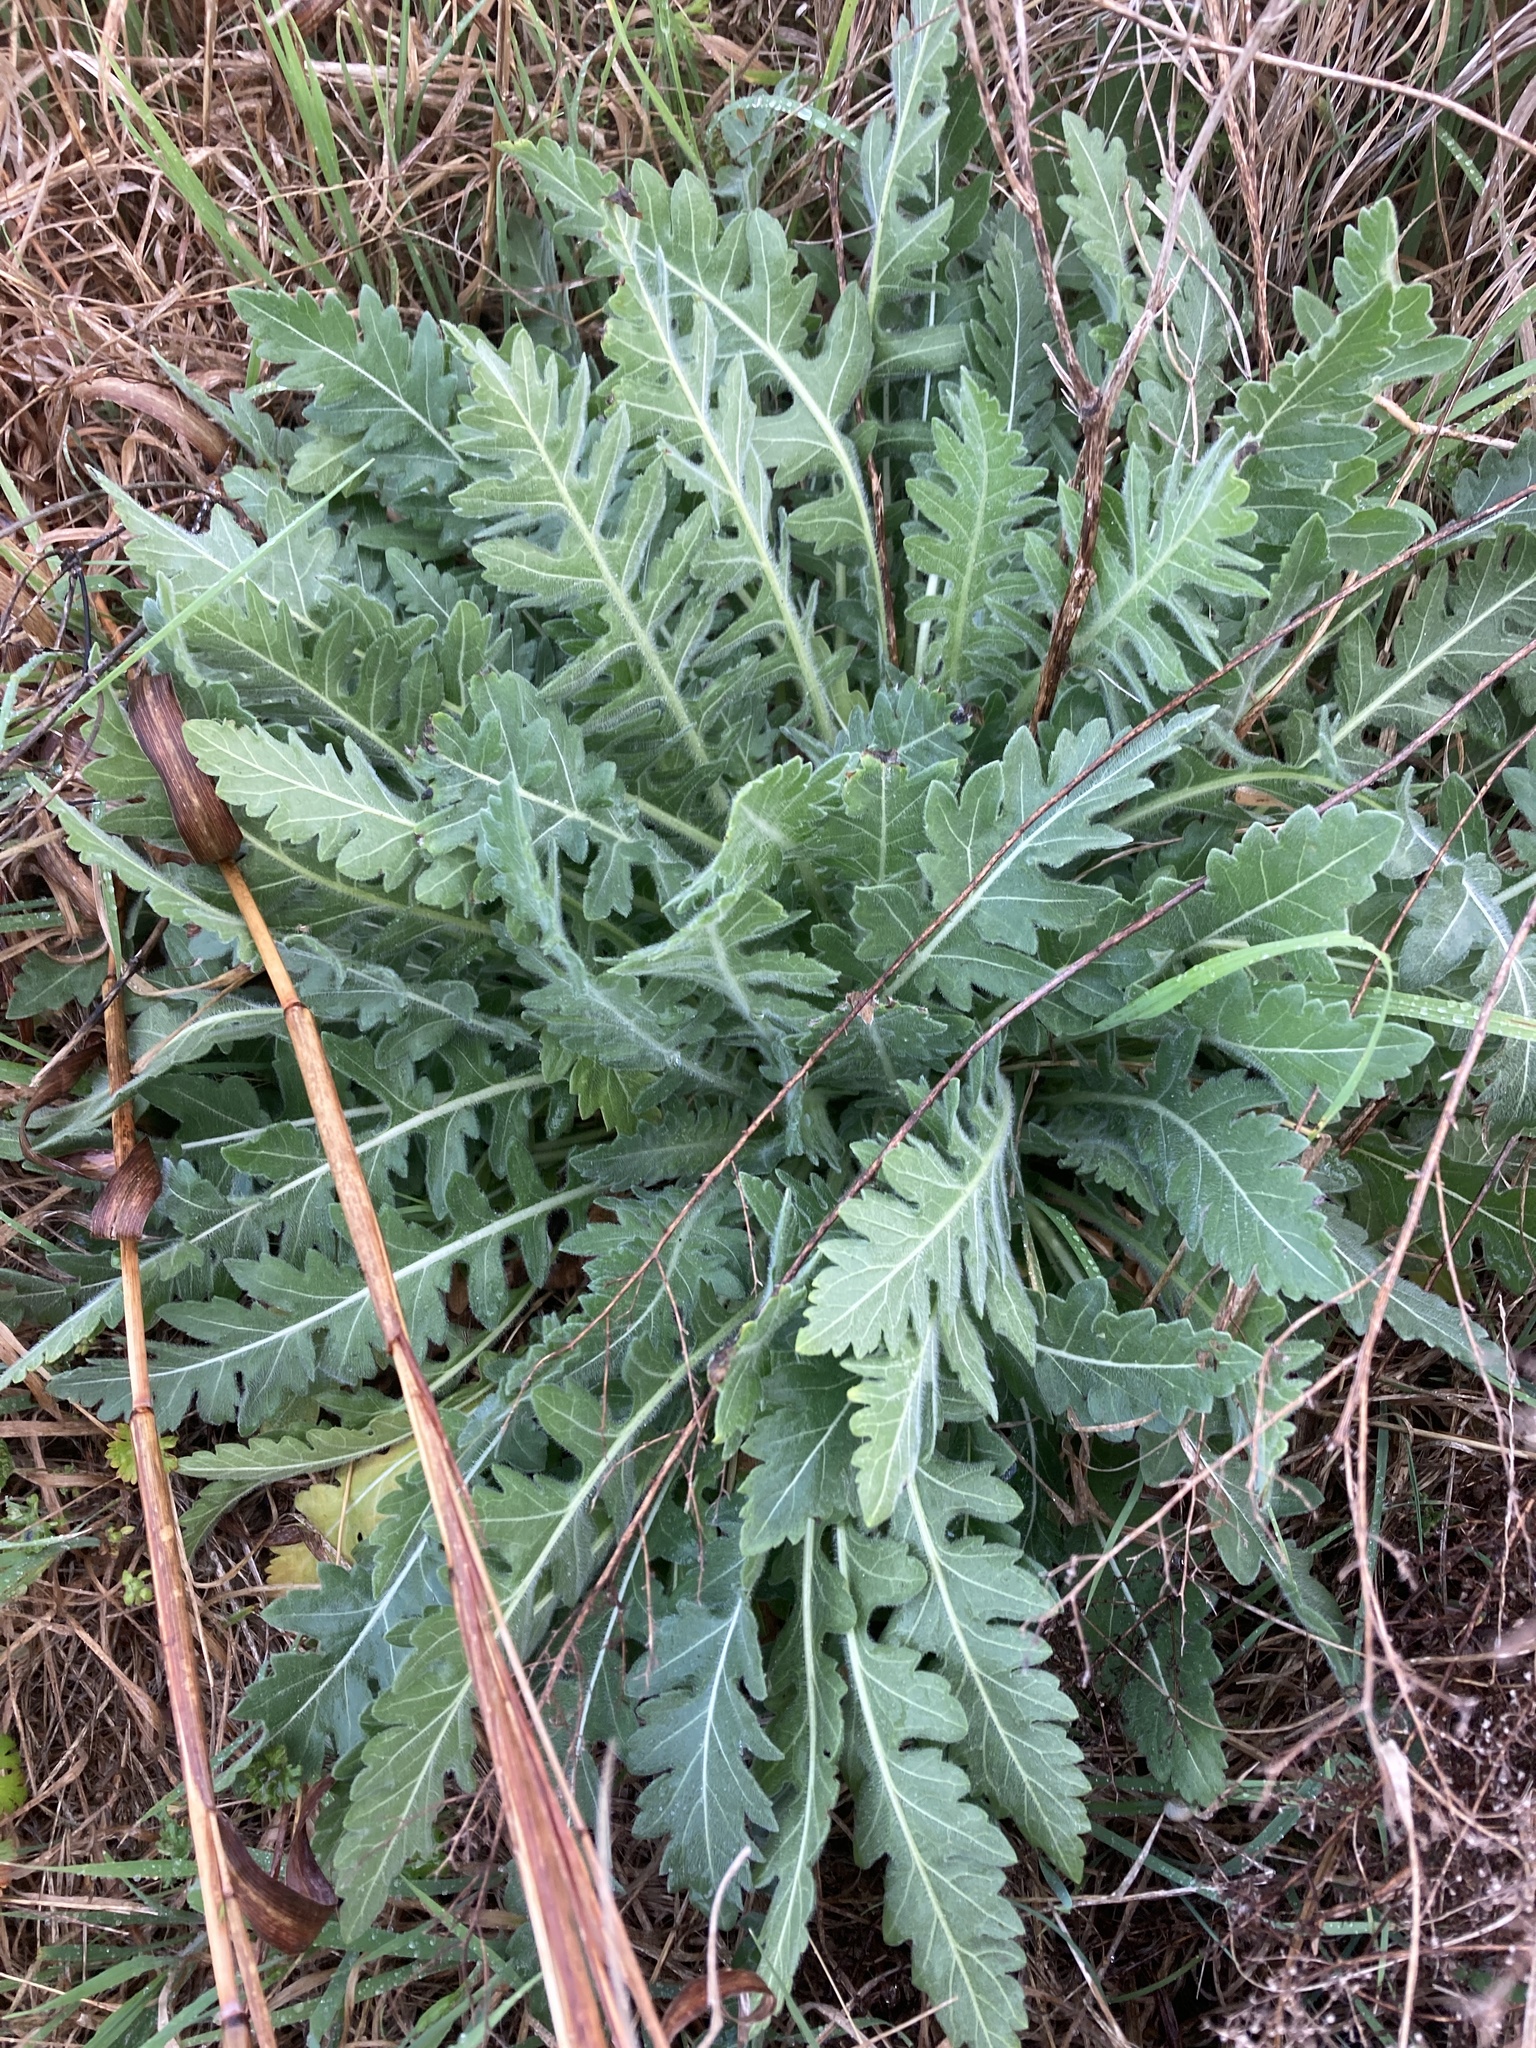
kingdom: Plantae
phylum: Tracheophyta
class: Magnoliopsida
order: Asterales
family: Asteraceae
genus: Engelmannia
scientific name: Engelmannia peristenia
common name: Engelmann's daisy
